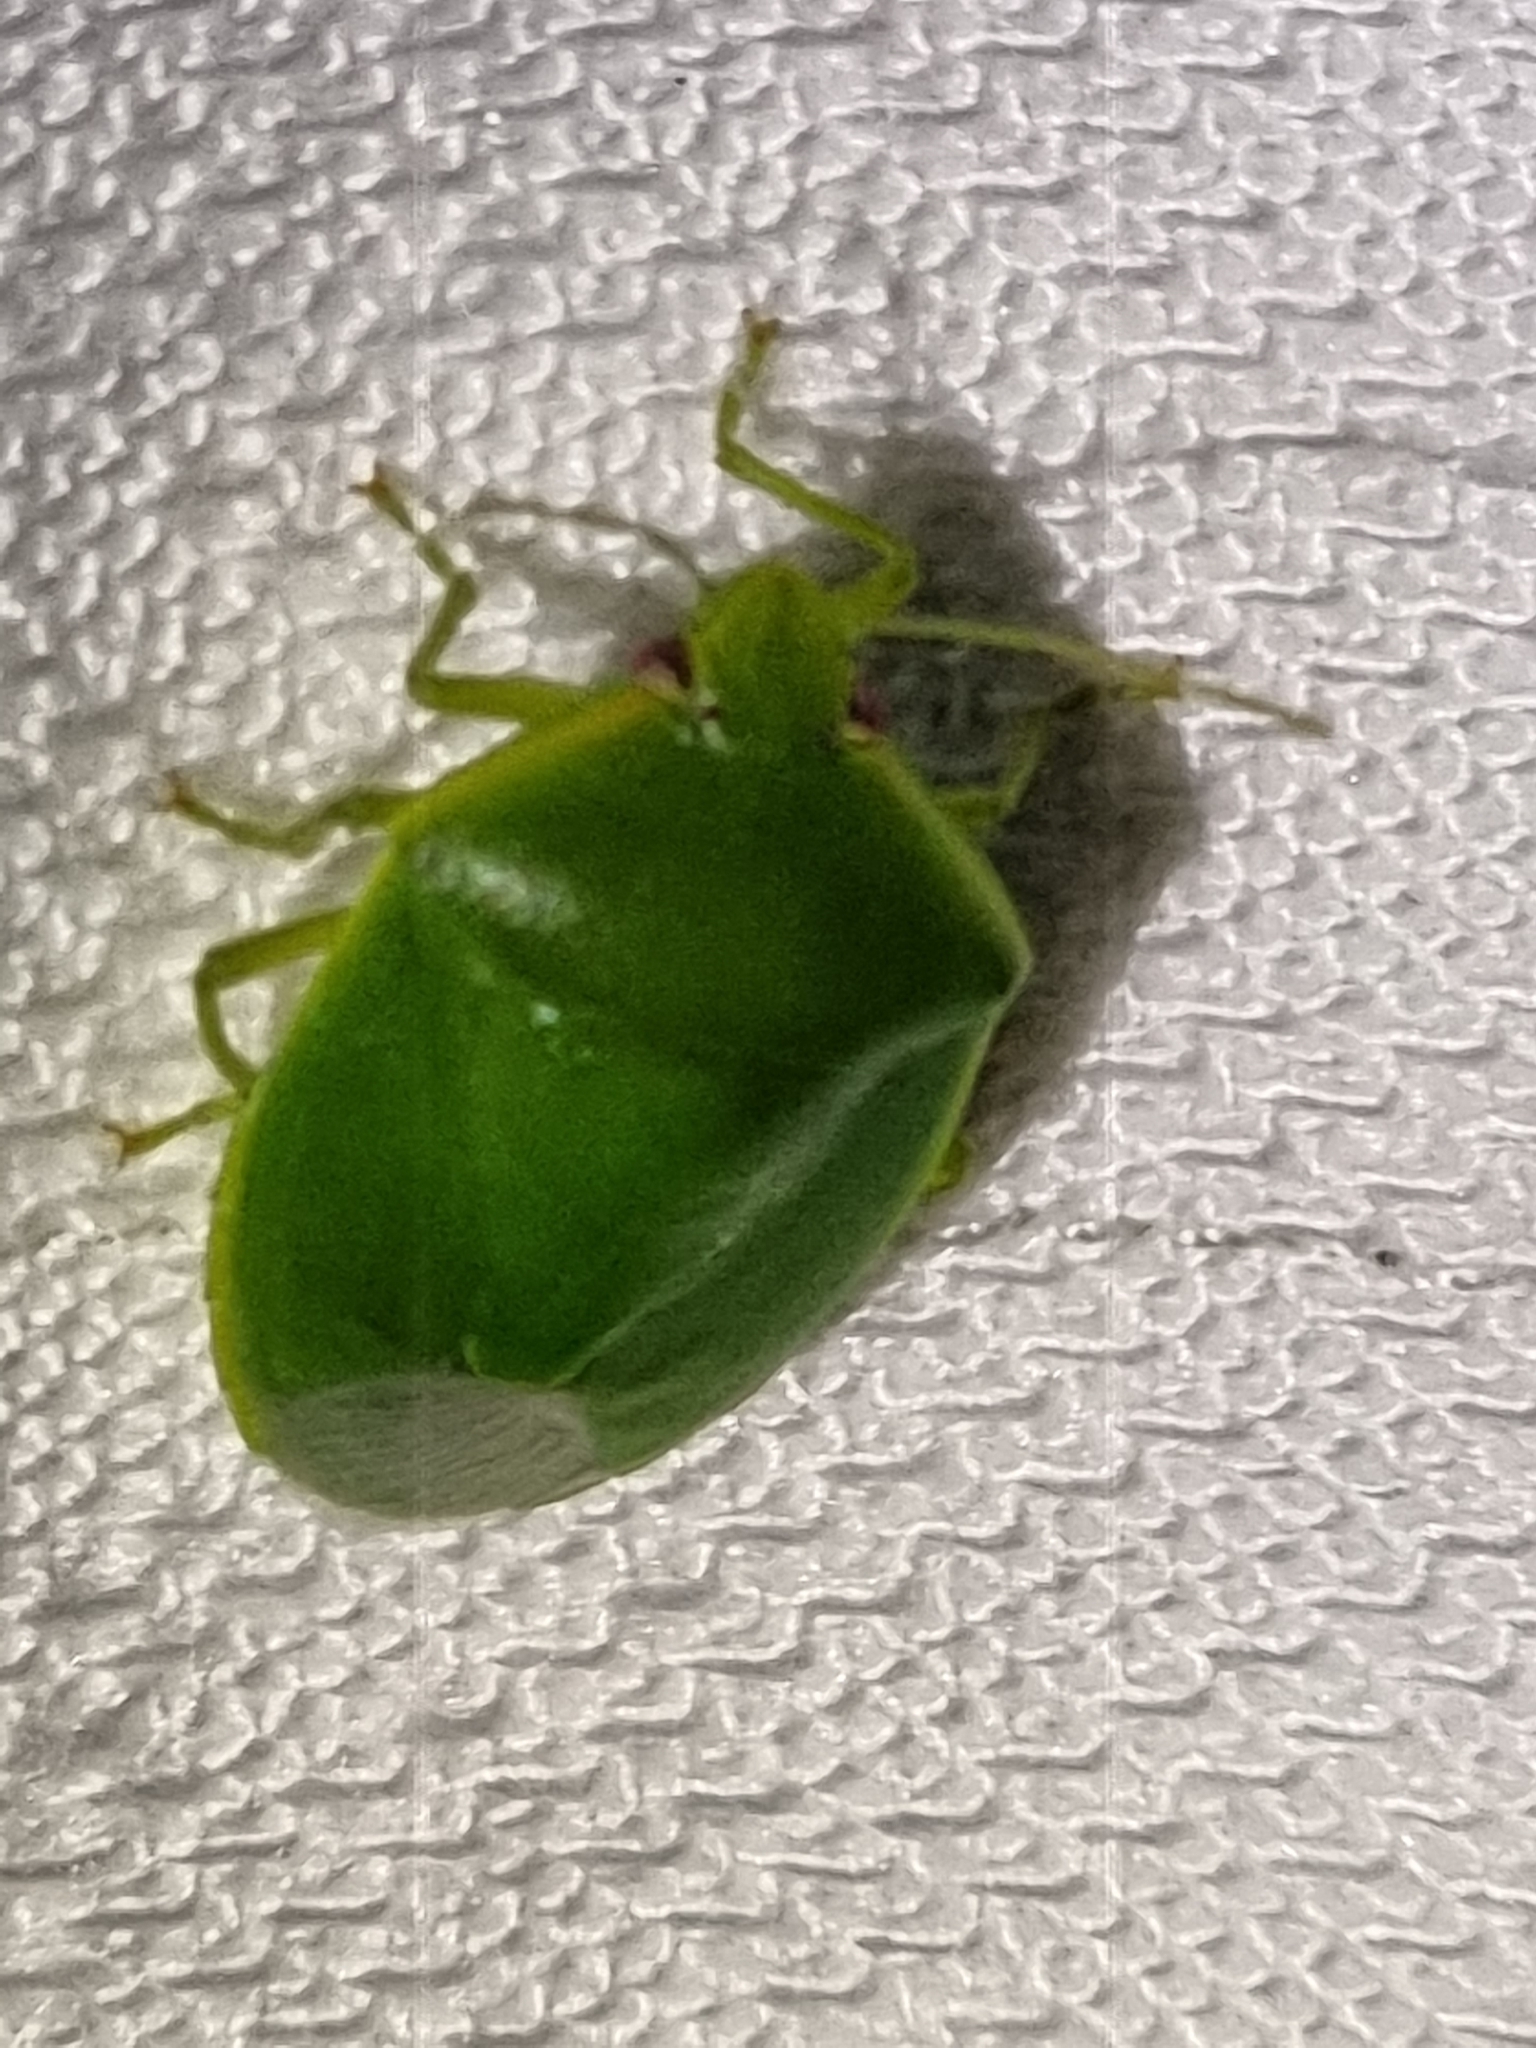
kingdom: Animalia
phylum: Arthropoda
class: Insecta
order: Hemiptera
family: Pentatomidae
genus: Glaucias
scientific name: Glaucias
